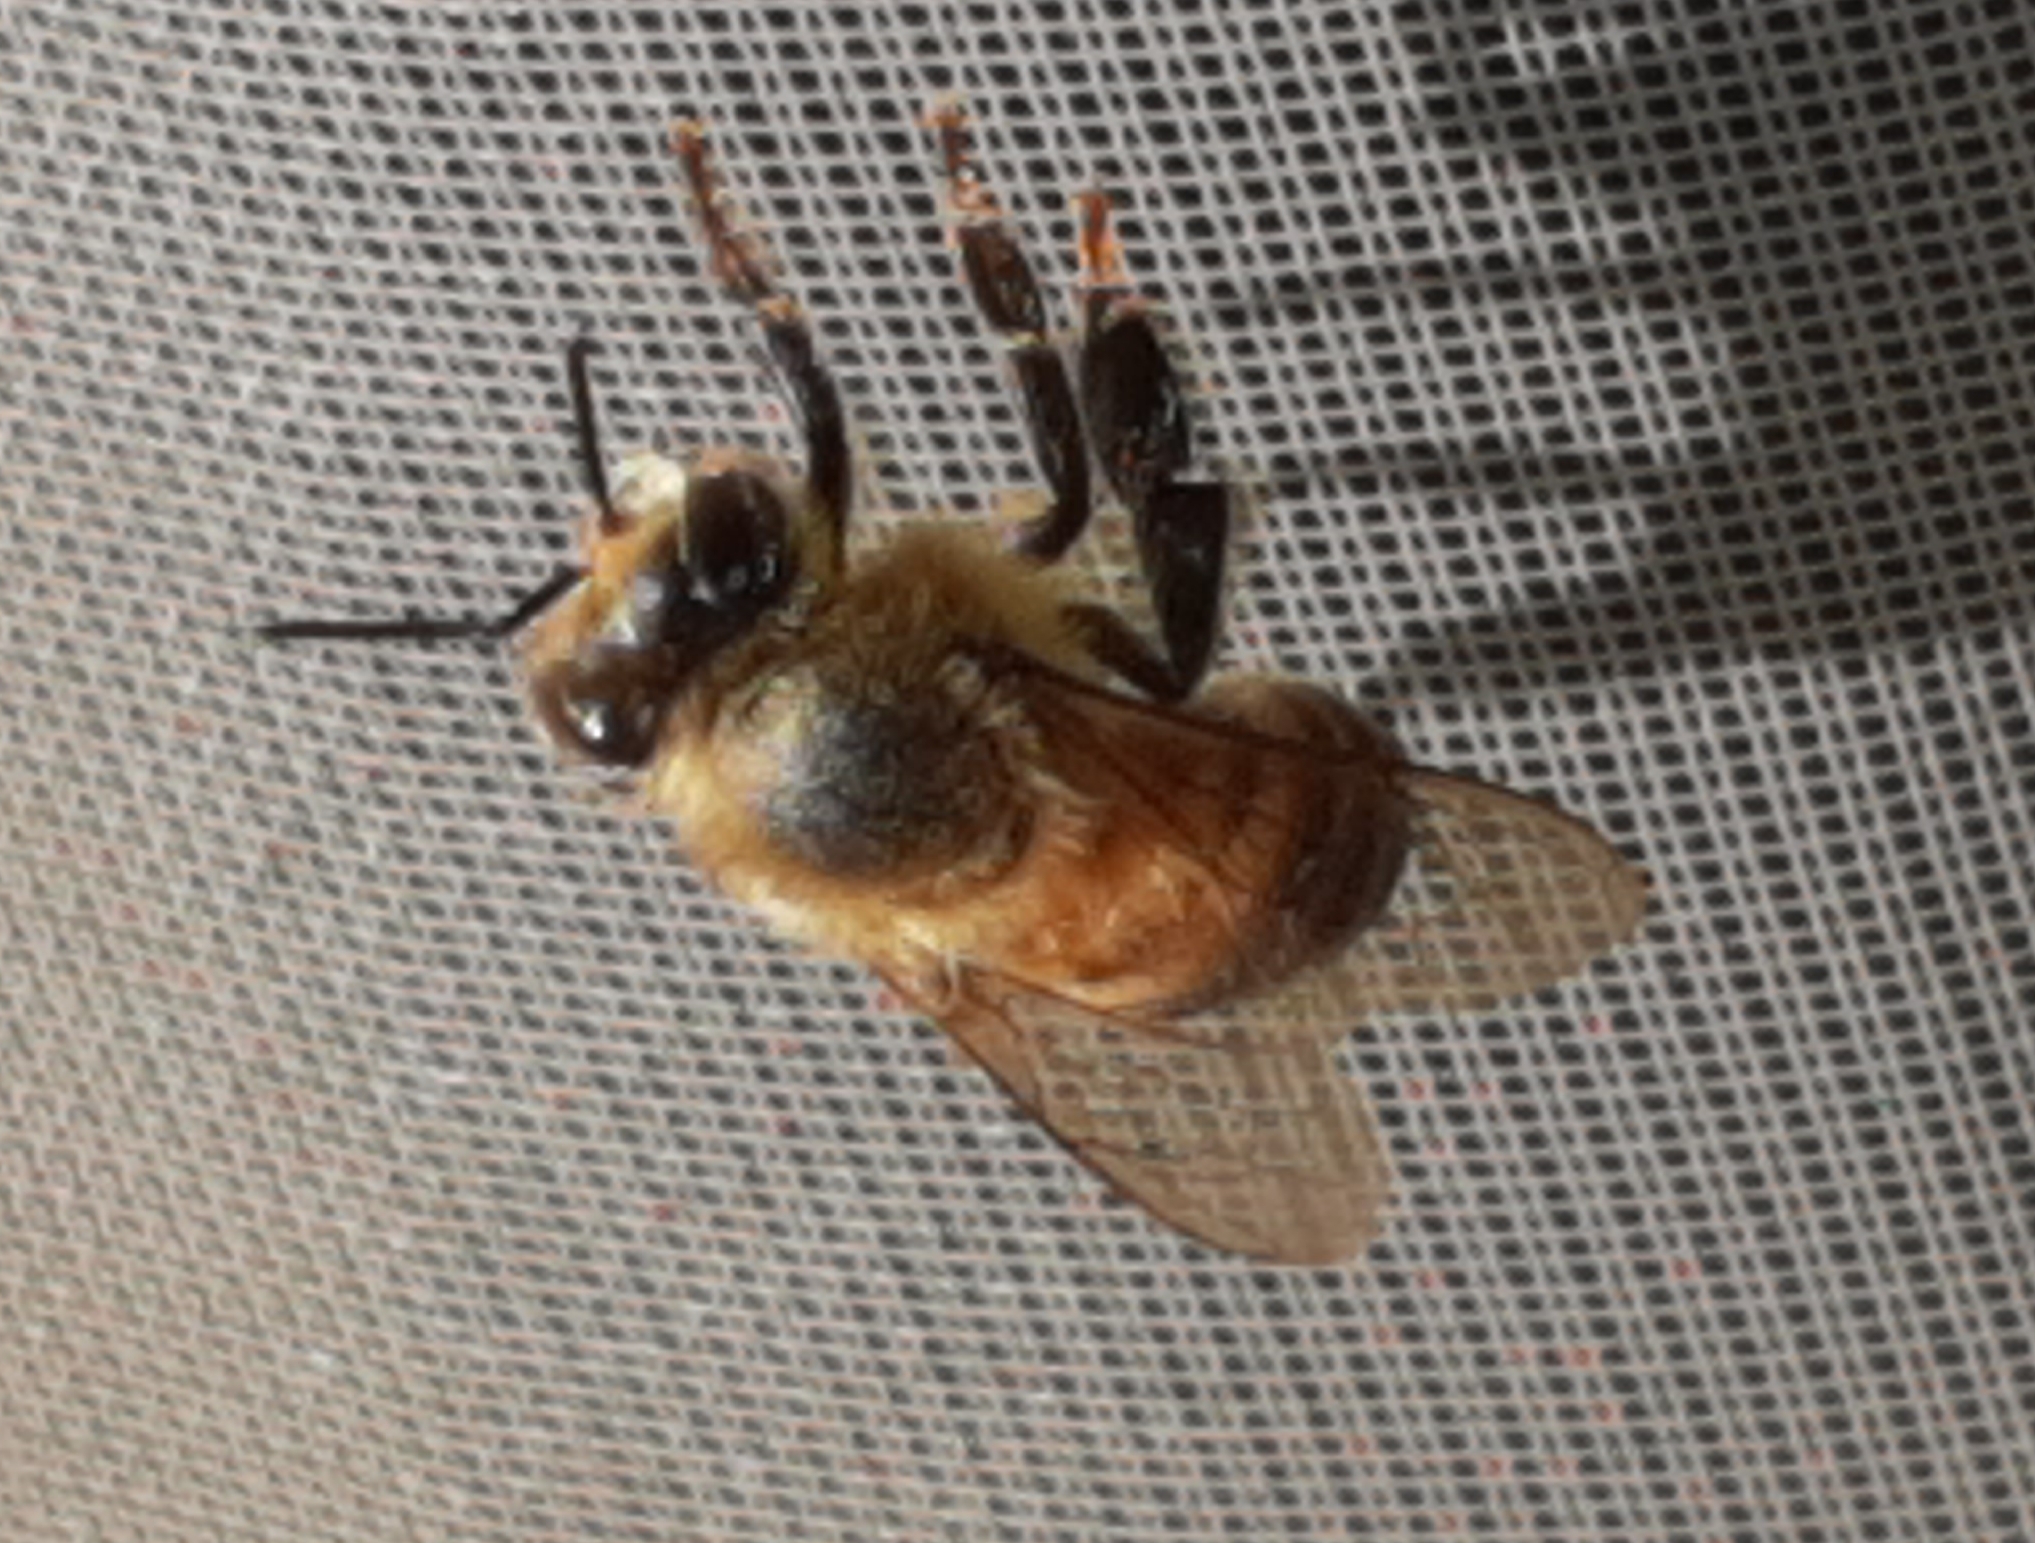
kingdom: Animalia
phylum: Arthropoda
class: Insecta
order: Hymenoptera
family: Apidae
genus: Apis
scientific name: Apis mellifera
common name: Honey bee
